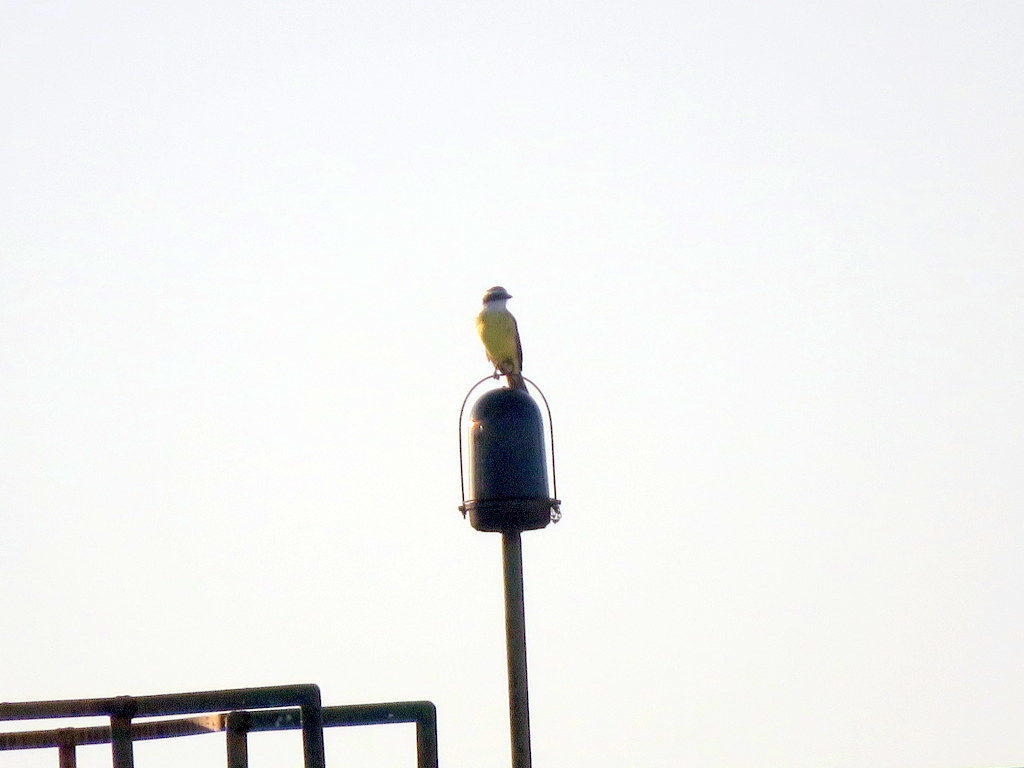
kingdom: Animalia
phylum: Chordata
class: Aves
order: Passeriformes
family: Tyrannidae
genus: Pitangus
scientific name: Pitangus sulphuratus
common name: Great kiskadee
